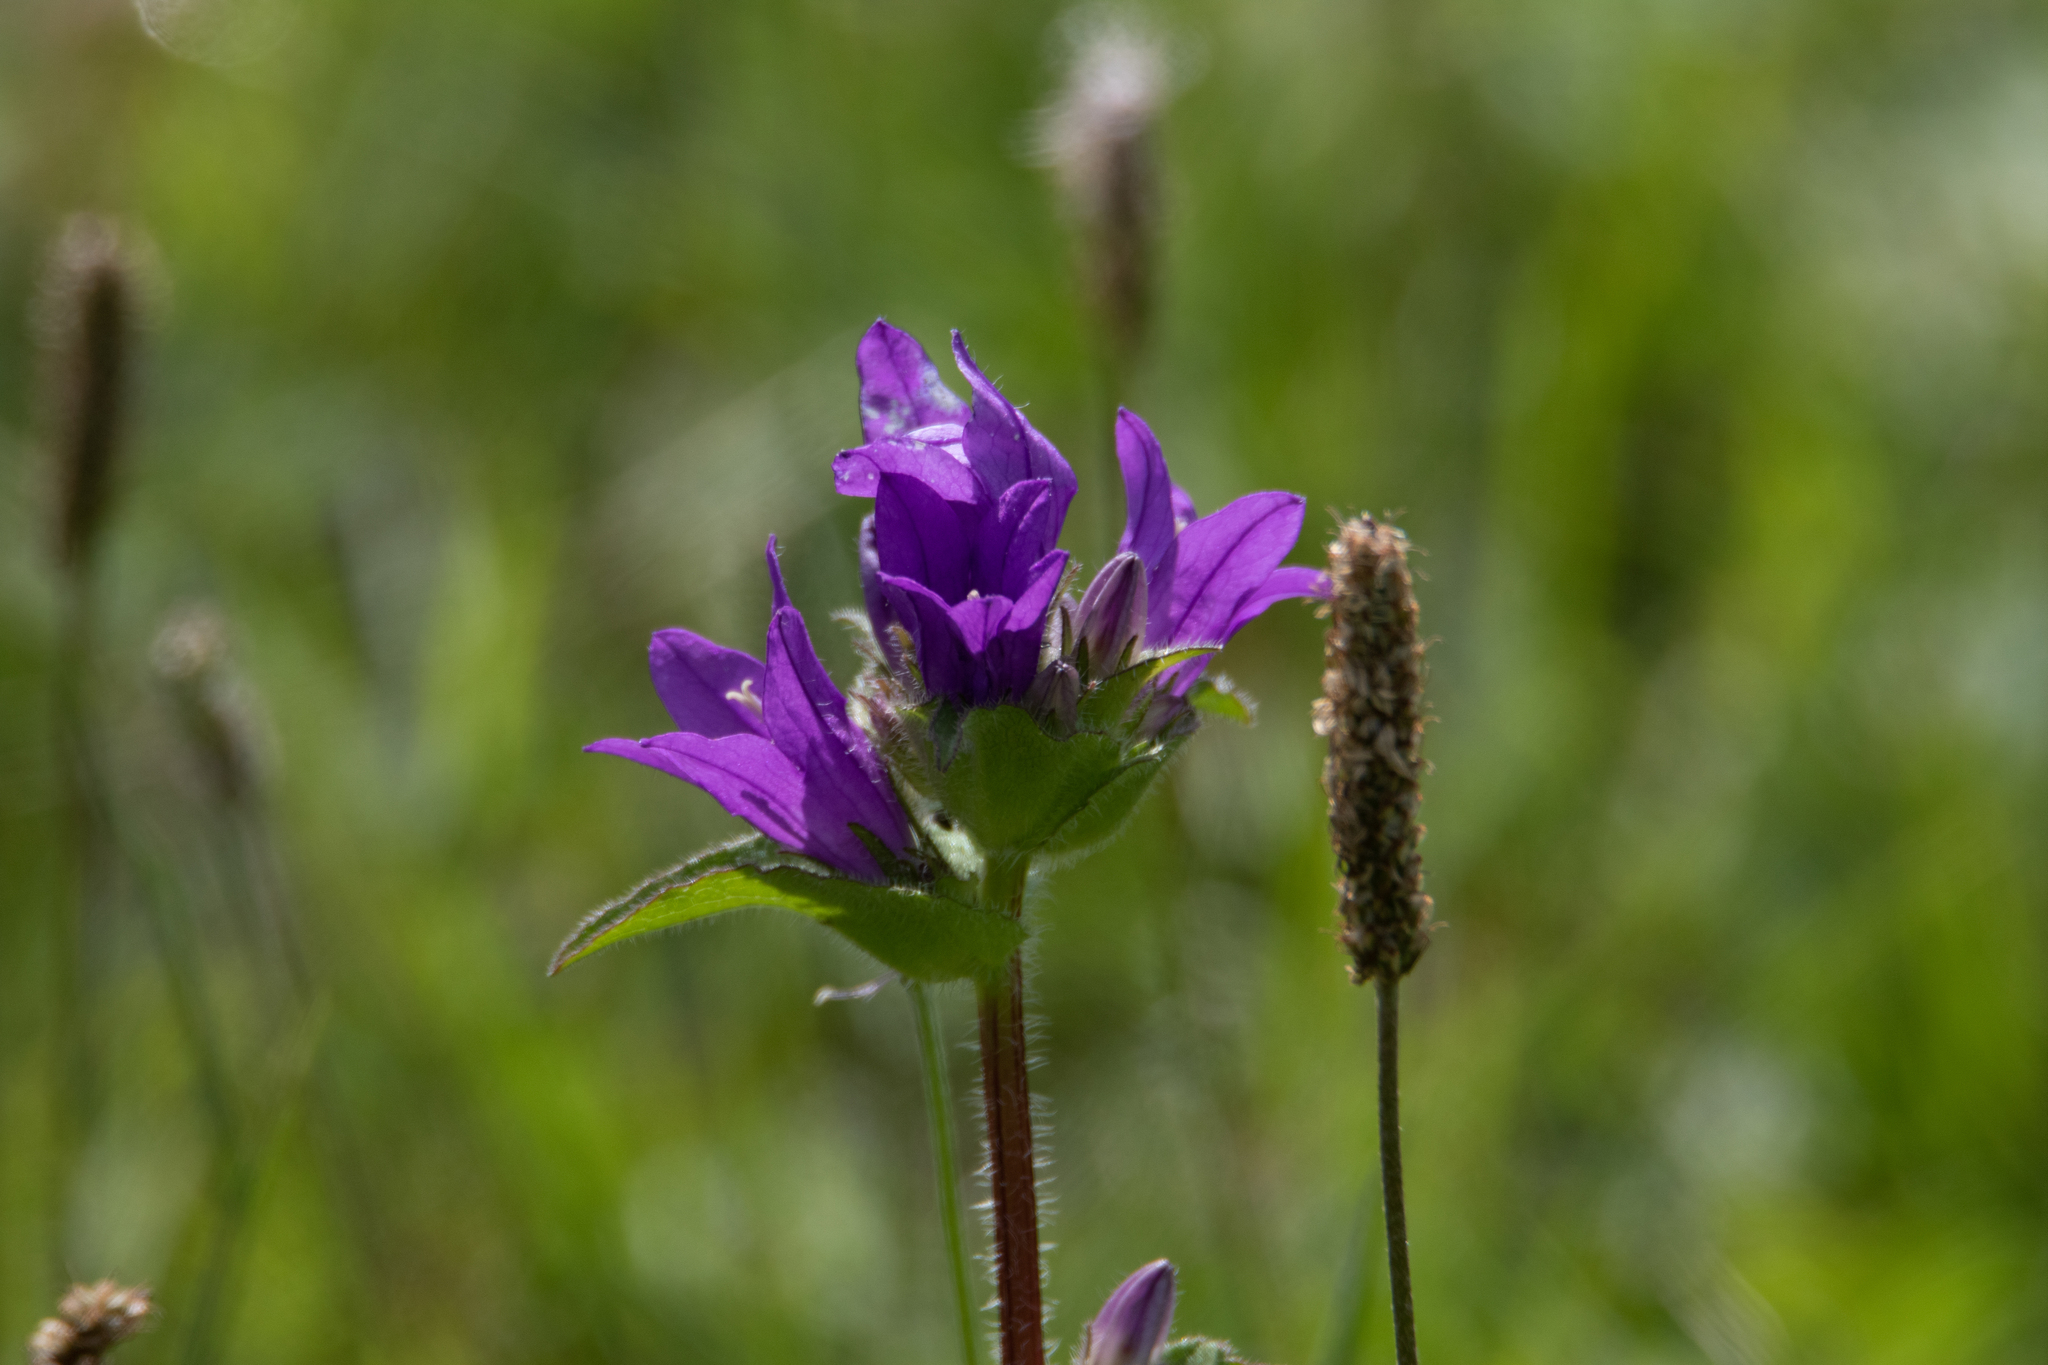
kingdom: Plantae
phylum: Tracheophyta
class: Magnoliopsida
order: Asterales
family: Campanulaceae
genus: Campanula
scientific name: Campanula glomerata
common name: Clustered bellflower
